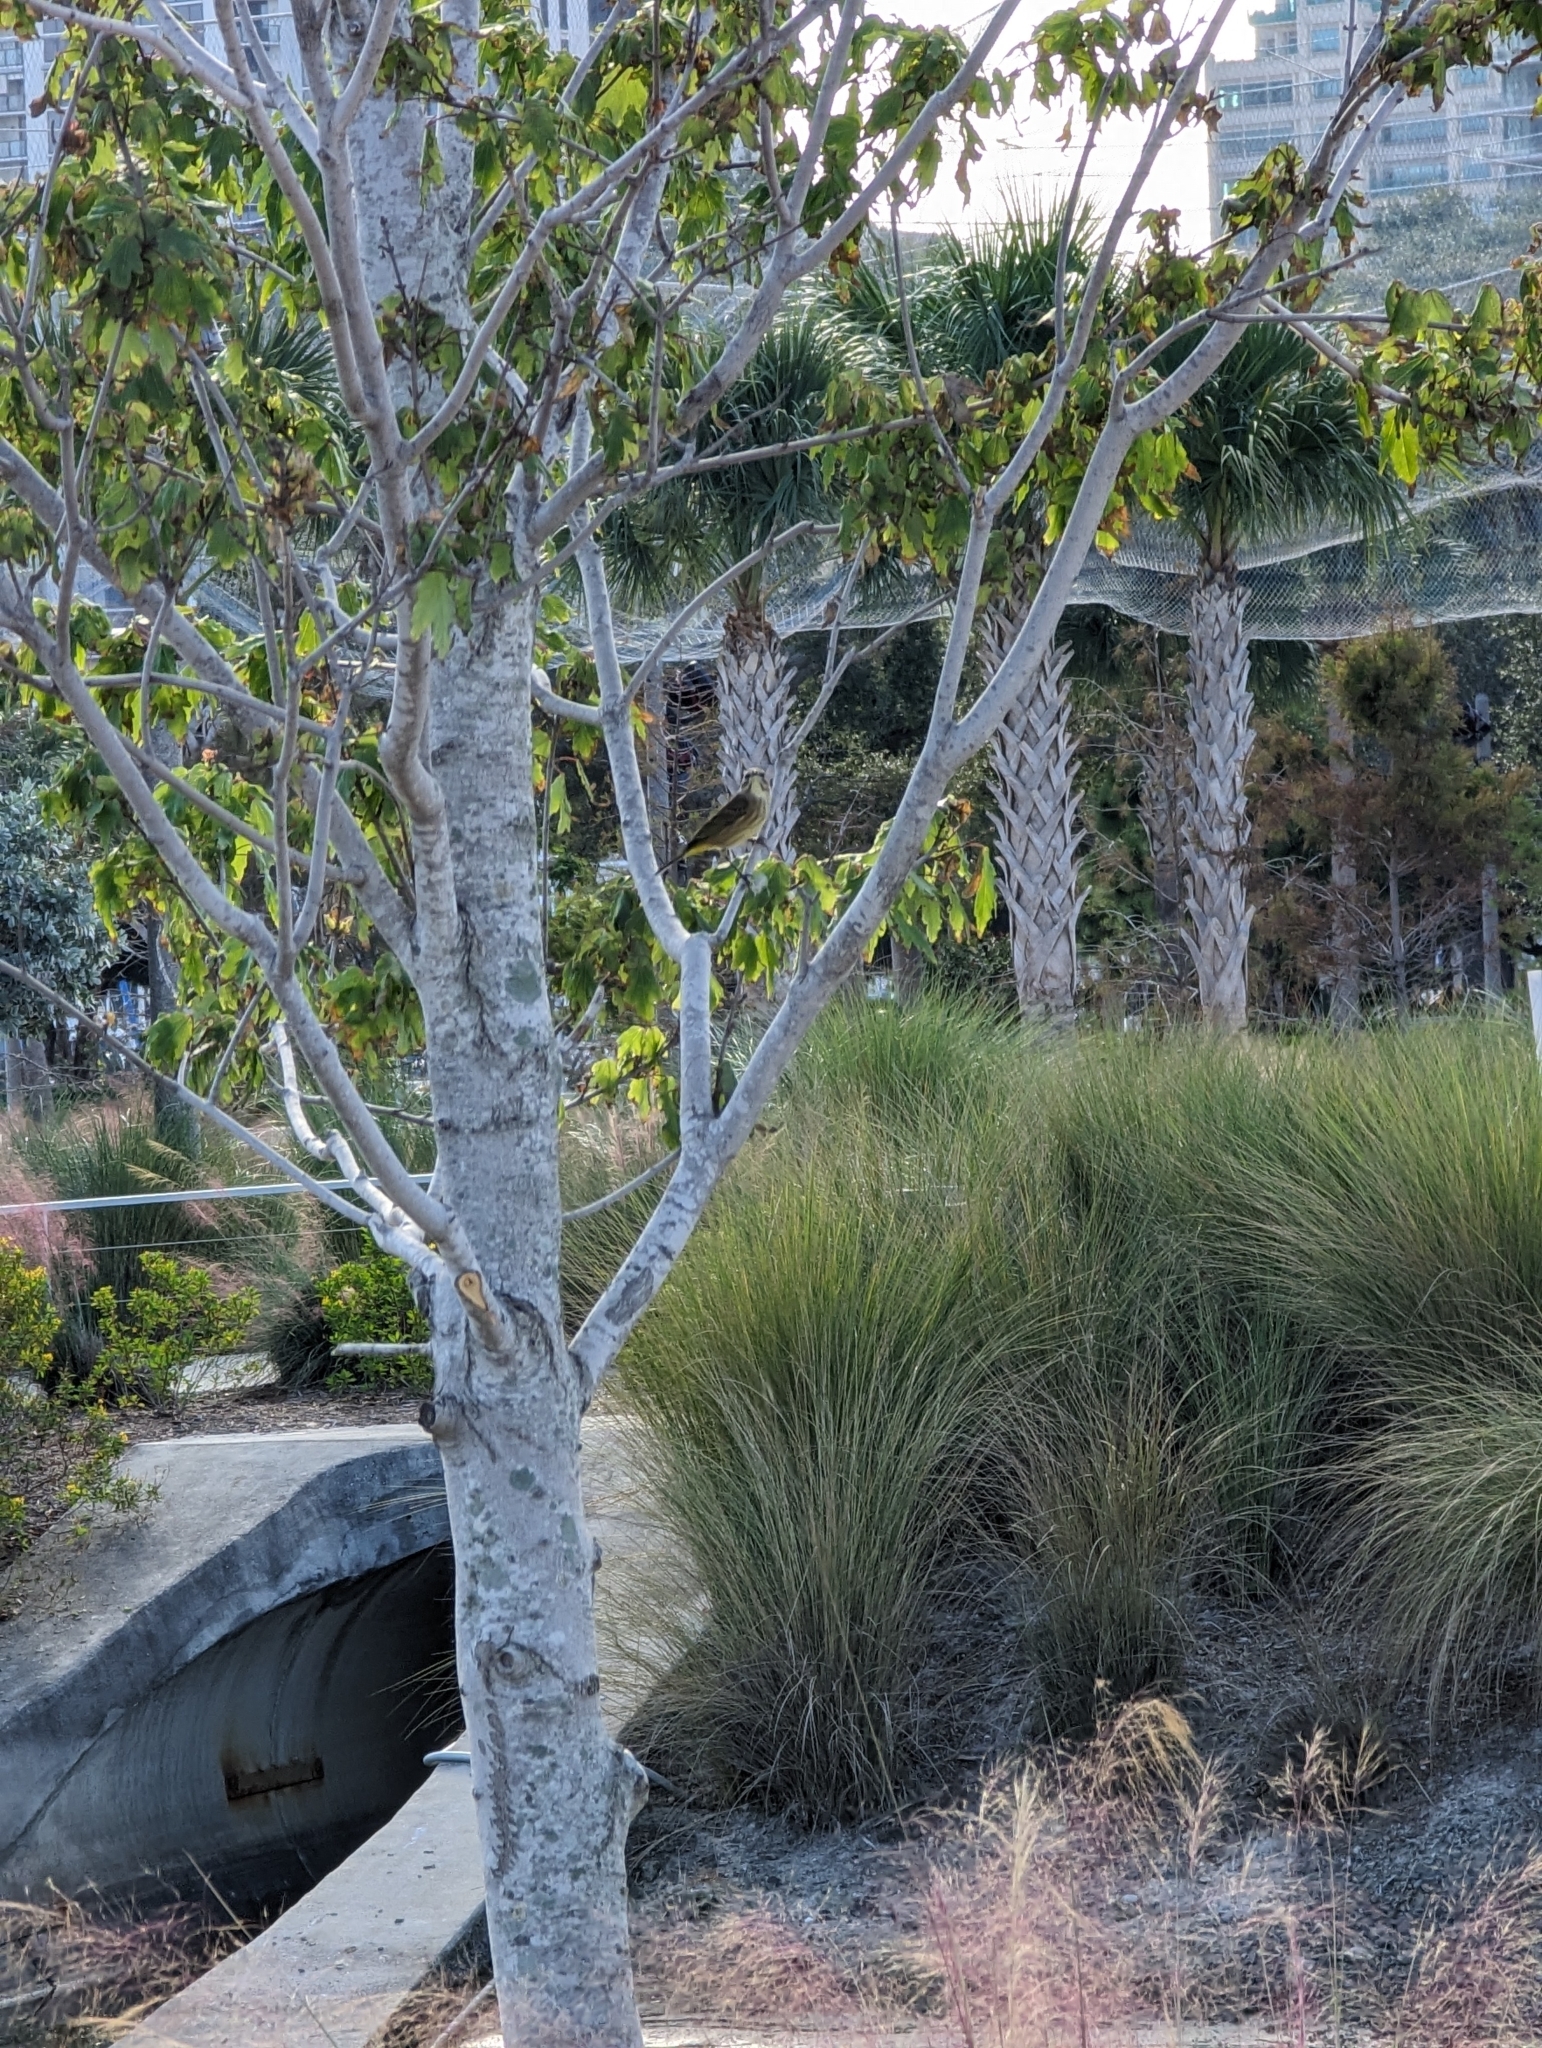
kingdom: Animalia
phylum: Chordata
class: Aves
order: Passeriformes
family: Parulidae
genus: Setophaga
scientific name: Setophaga palmarum
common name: Palm warbler
